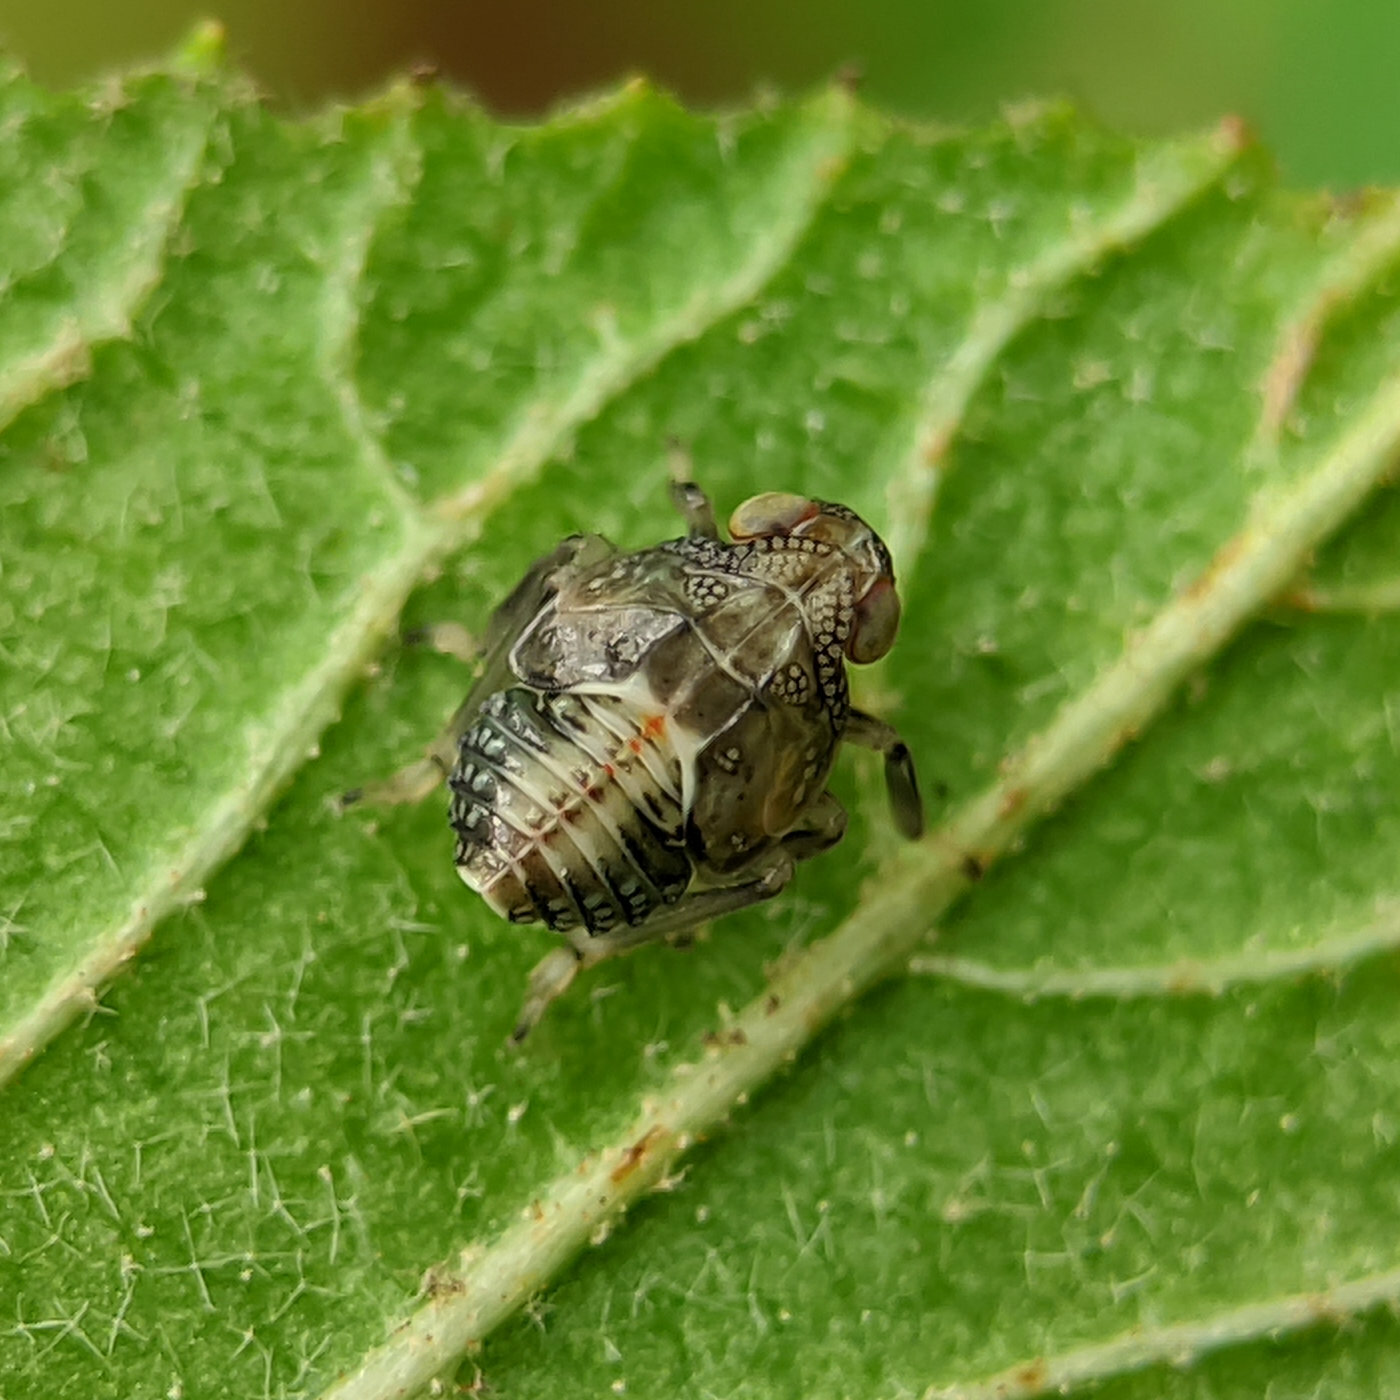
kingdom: Animalia
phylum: Arthropoda
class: Insecta
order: Hemiptera
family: Issidae
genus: Issus
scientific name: Issus coleoptratus
